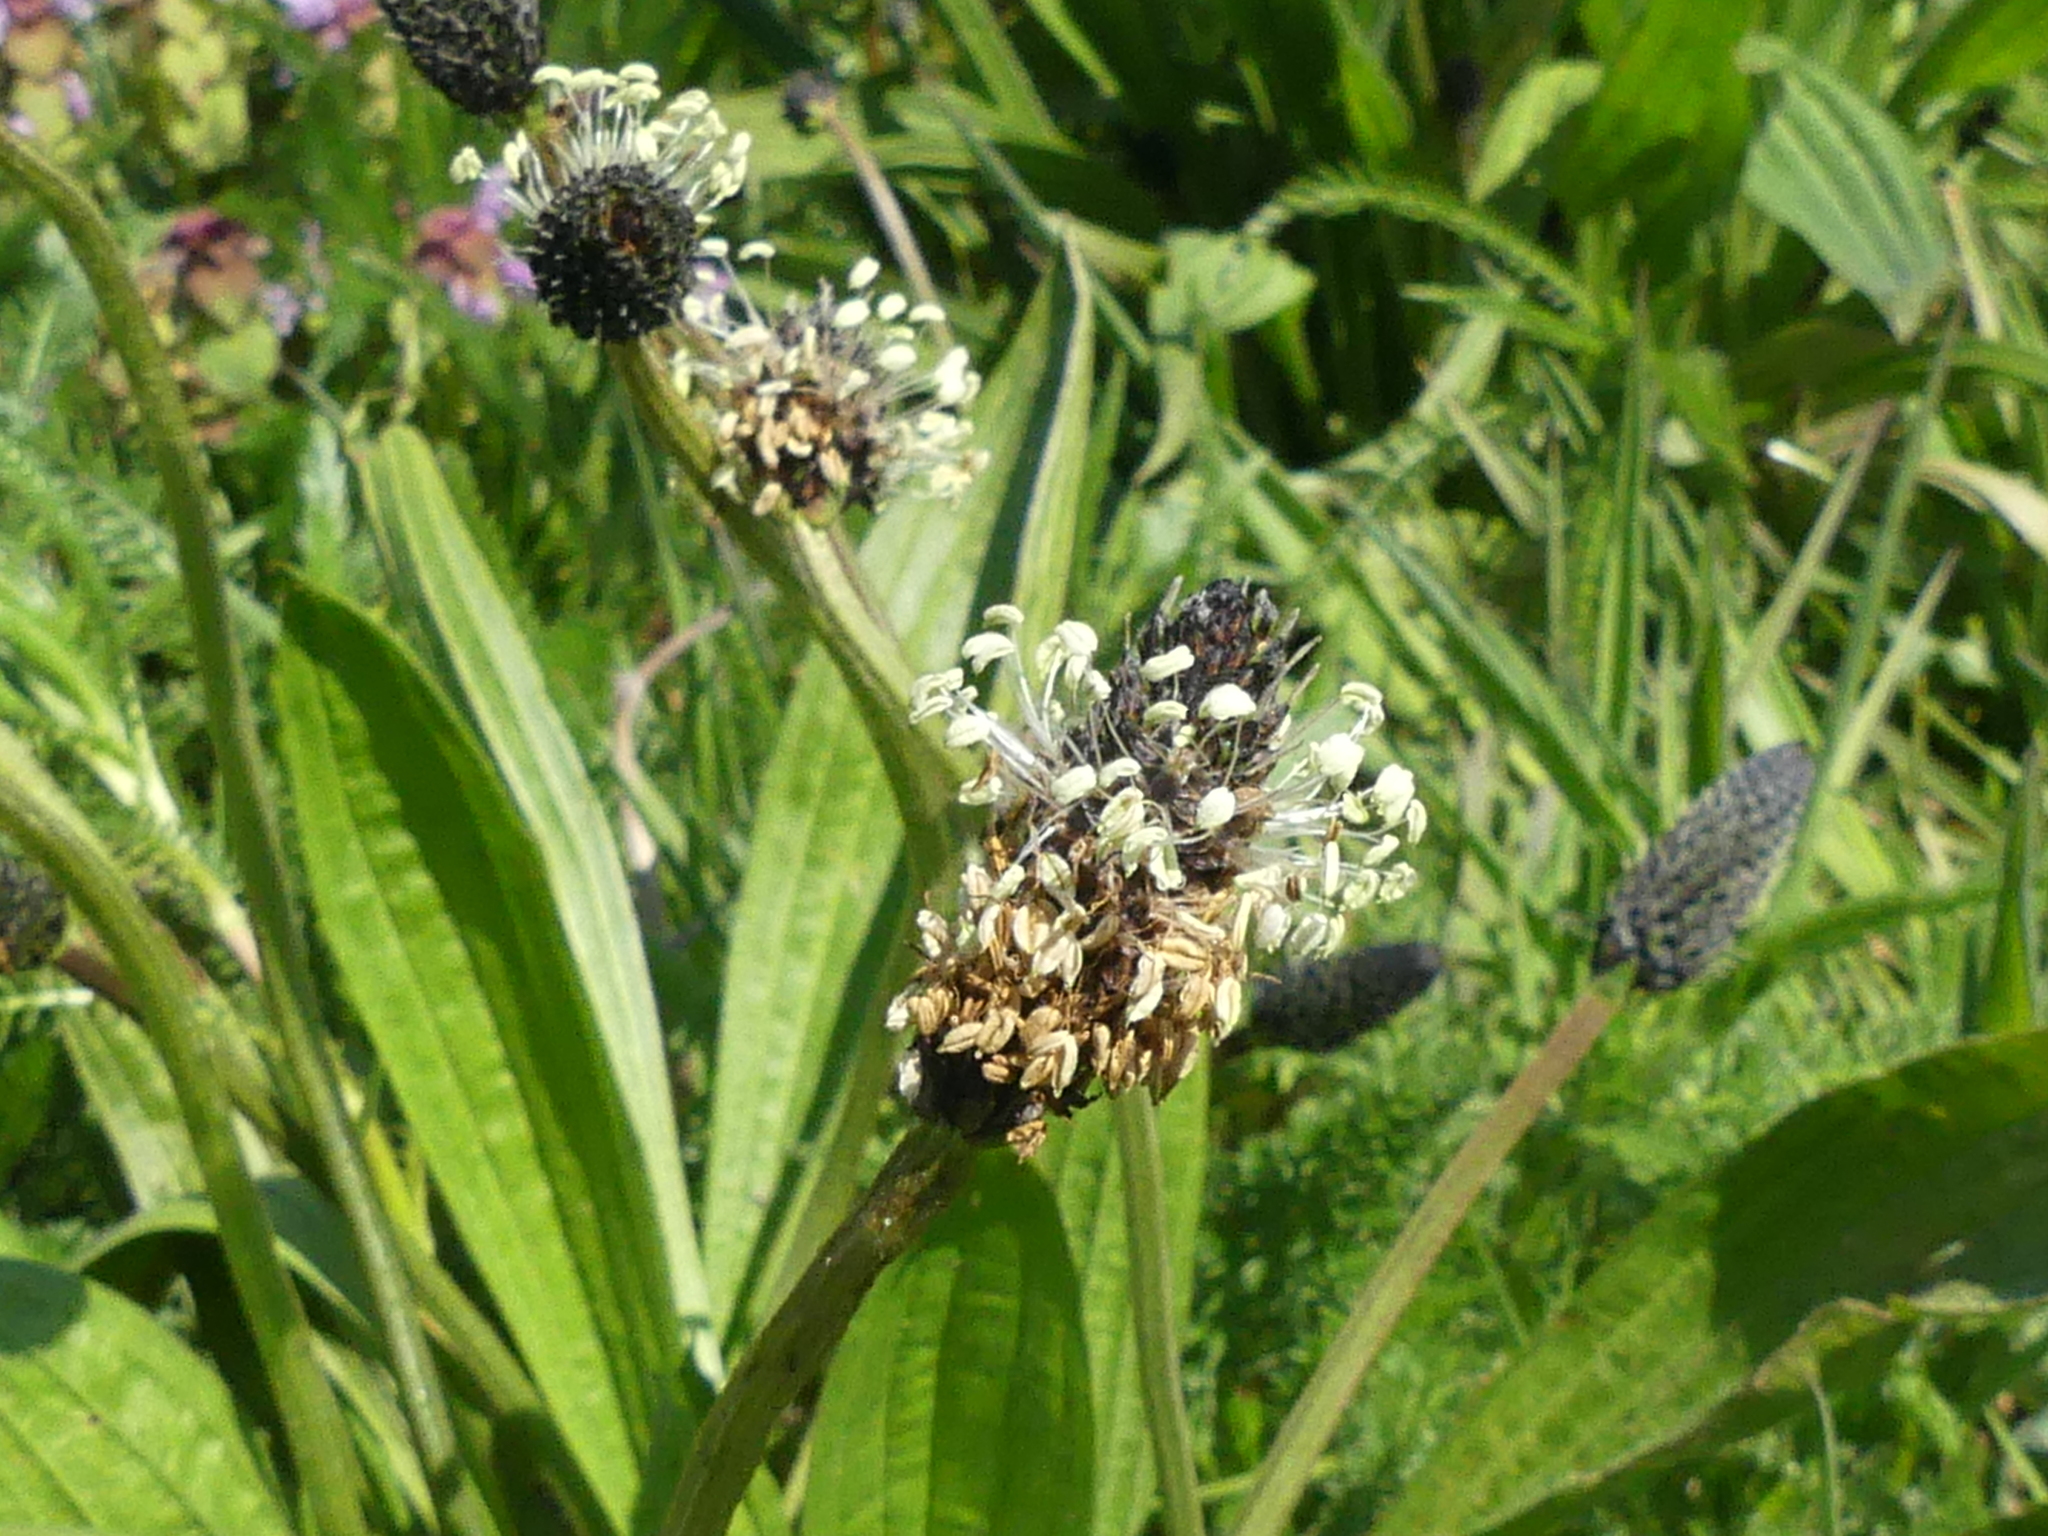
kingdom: Plantae
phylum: Tracheophyta
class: Magnoliopsida
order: Lamiales
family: Plantaginaceae
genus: Plantago
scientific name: Plantago lanceolata
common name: Ribwort plantain
